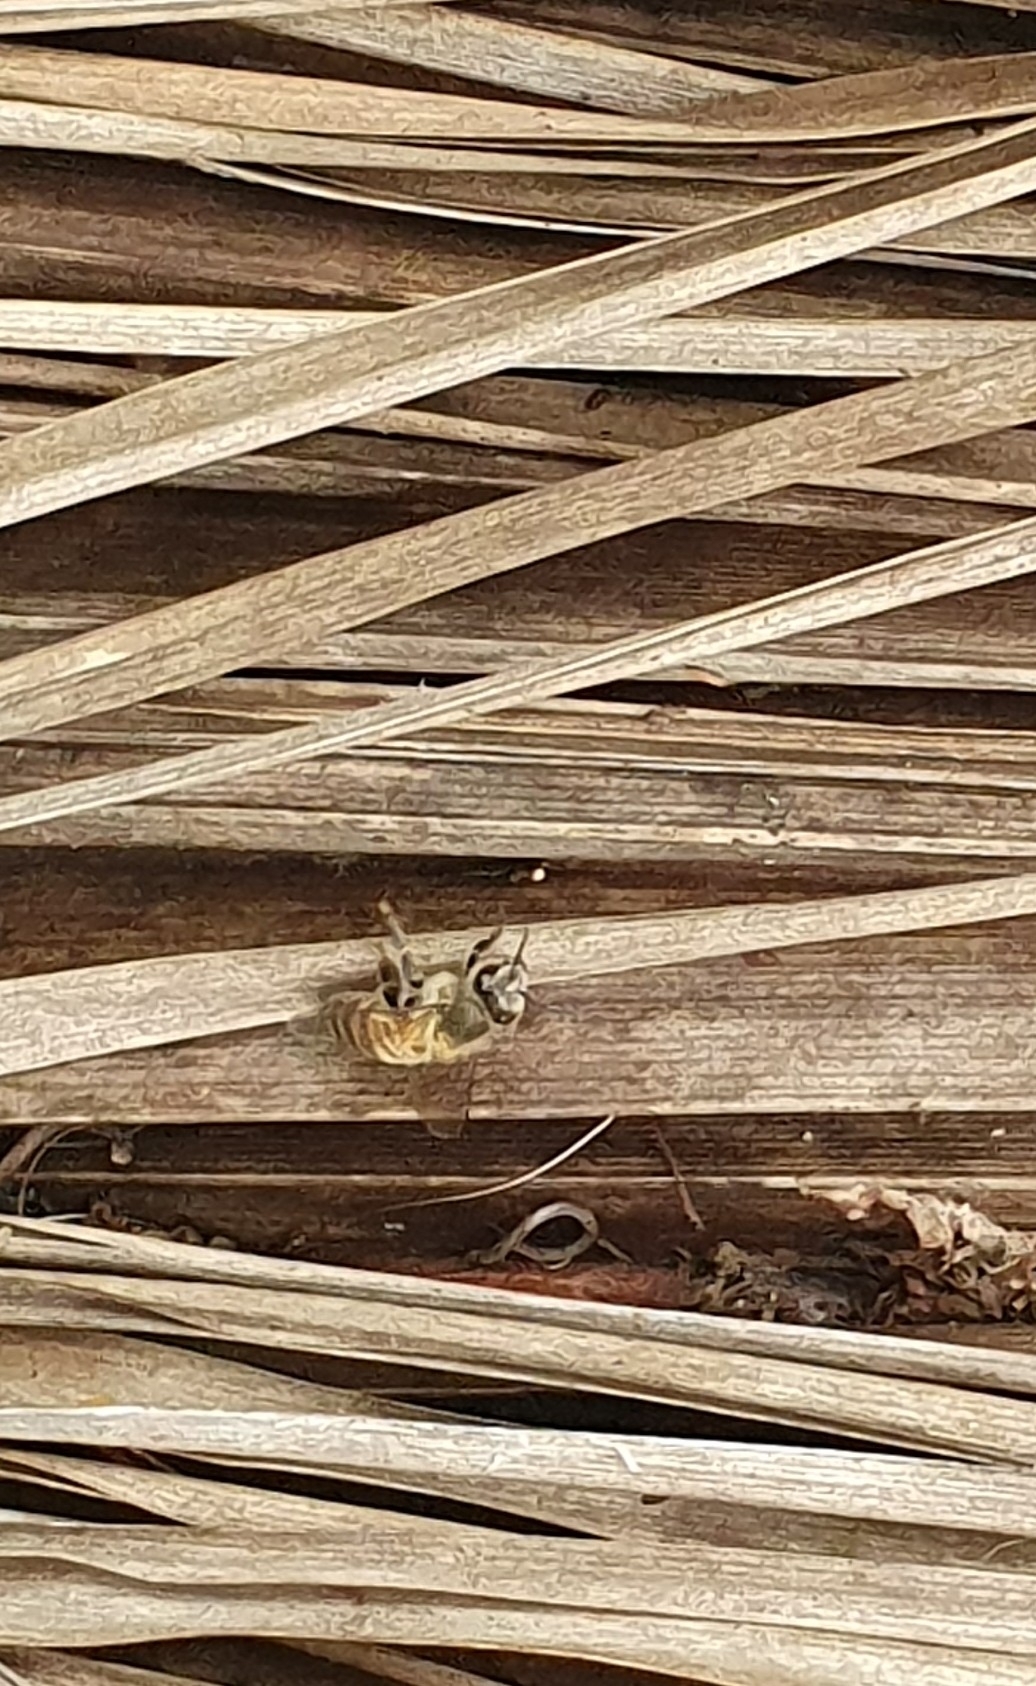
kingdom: Animalia
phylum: Arthropoda
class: Insecta
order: Hymenoptera
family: Apidae
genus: Apis
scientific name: Apis mellifera
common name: Honey bee
